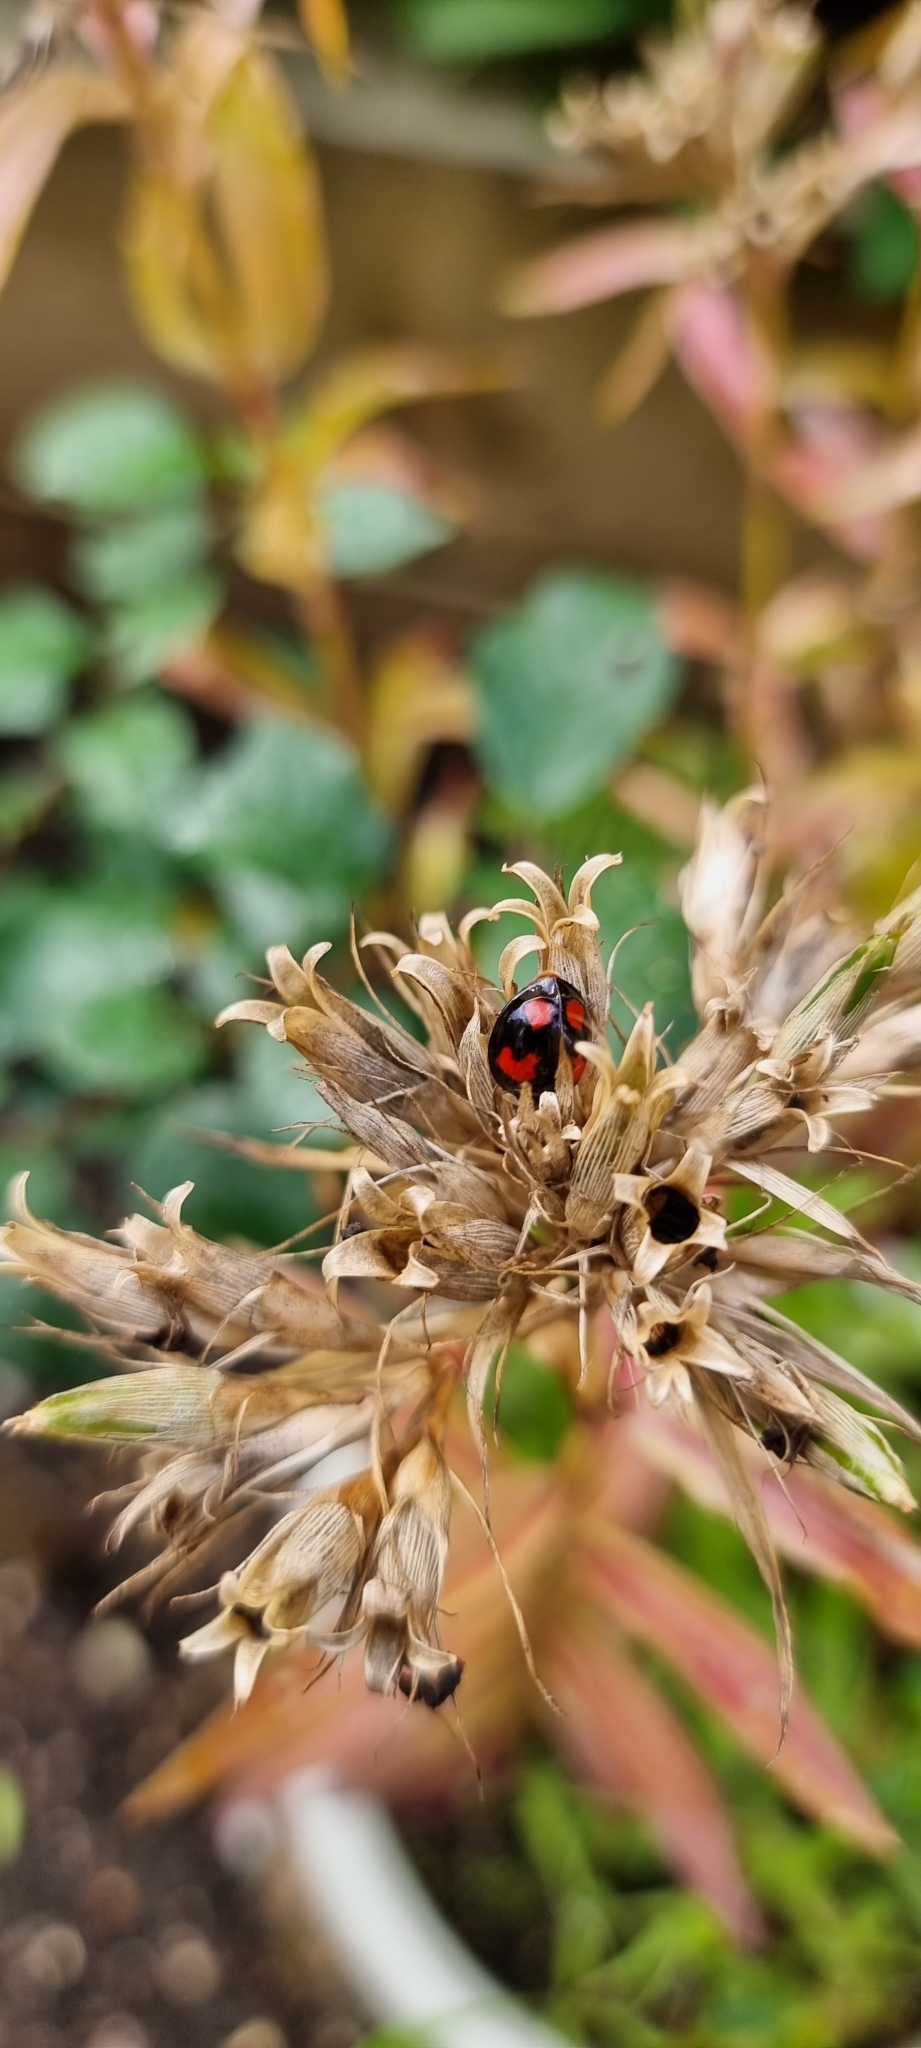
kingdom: Animalia
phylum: Arthropoda
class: Insecta
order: Coleoptera
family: Coccinellidae
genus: Harmonia
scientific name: Harmonia axyridis
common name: Harlequin ladybird
